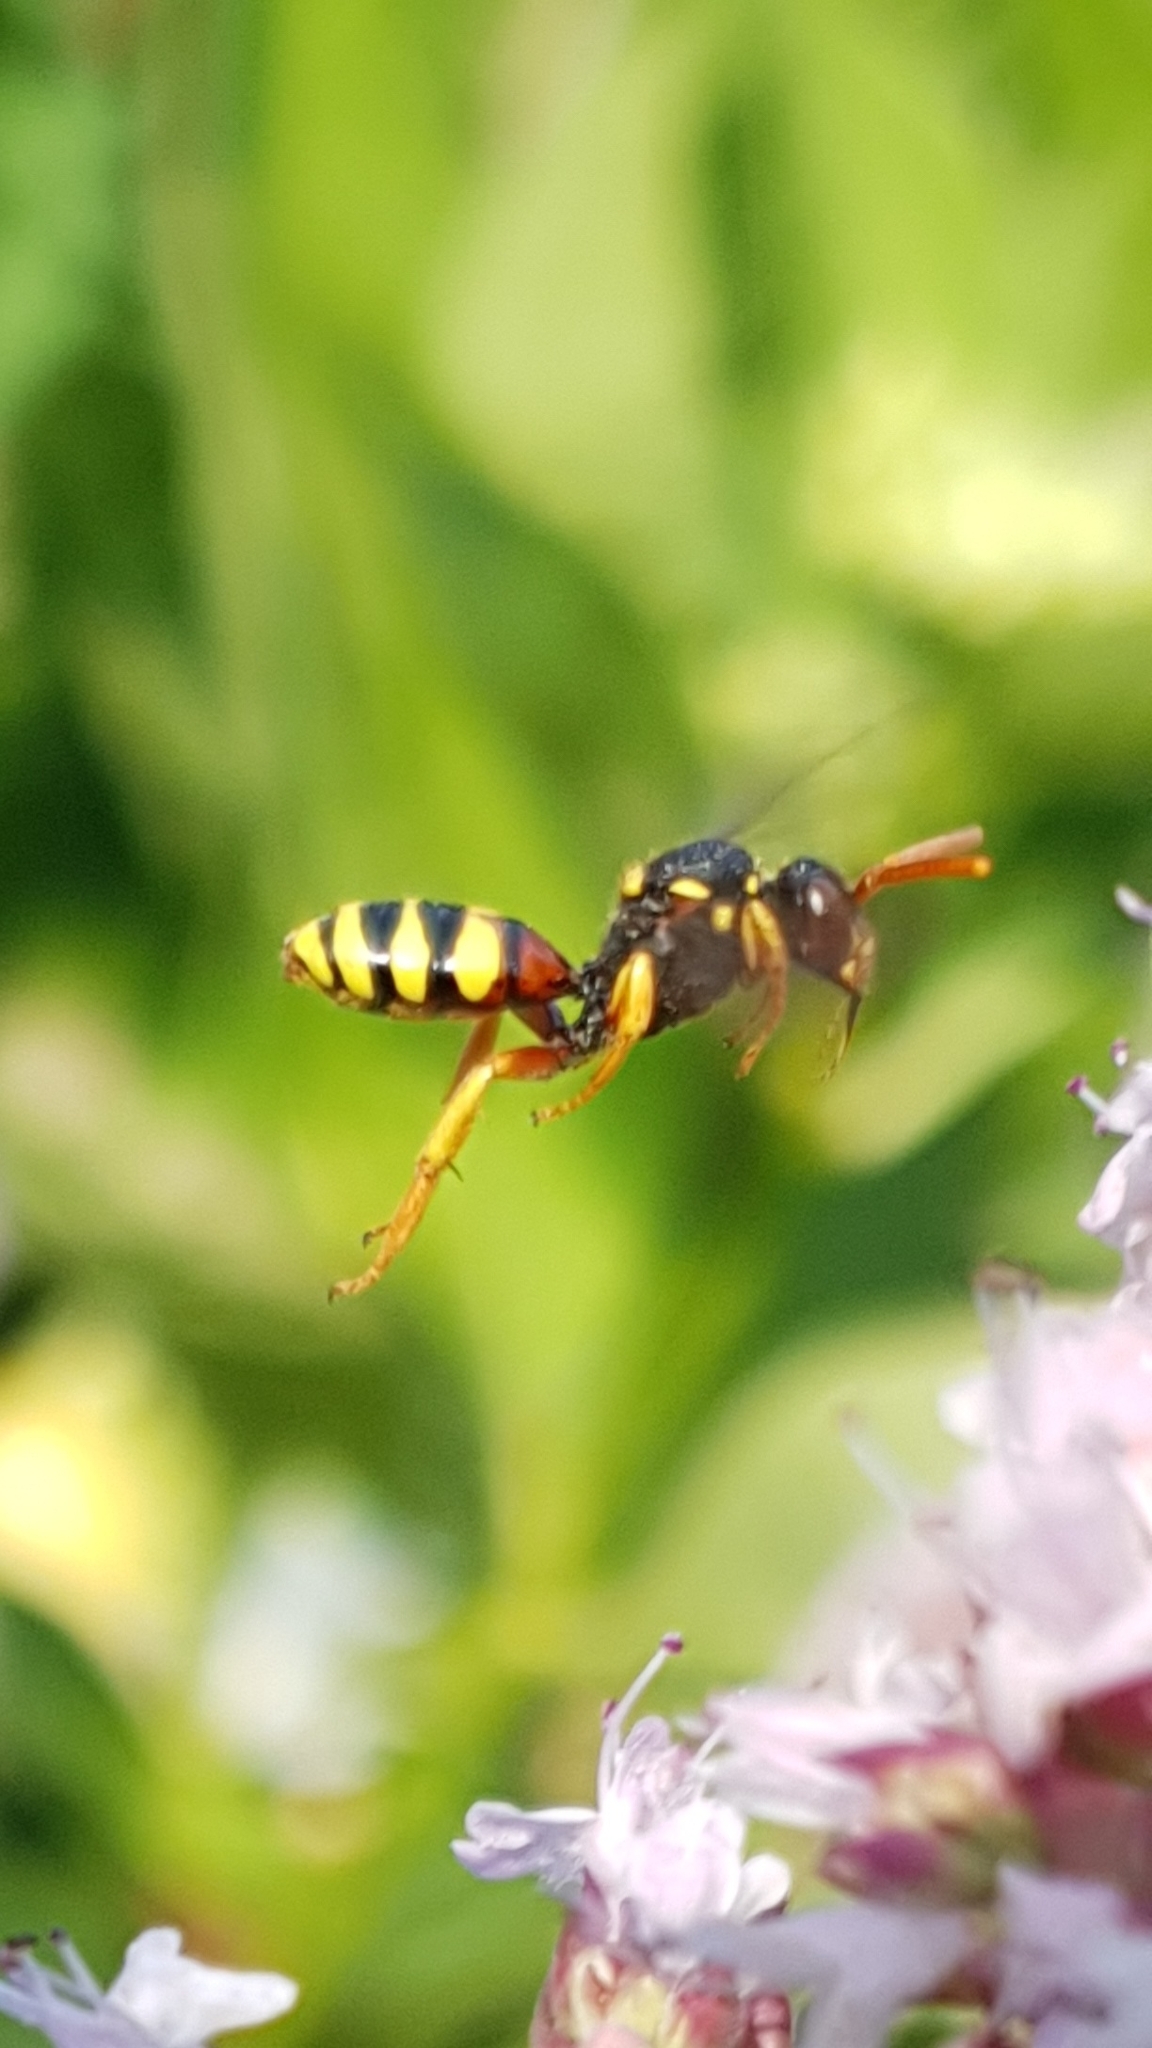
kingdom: Animalia
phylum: Arthropoda
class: Insecta
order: Hymenoptera
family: Apidae
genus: Nomada
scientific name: Nomada fucata
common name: Painted nomad bee
